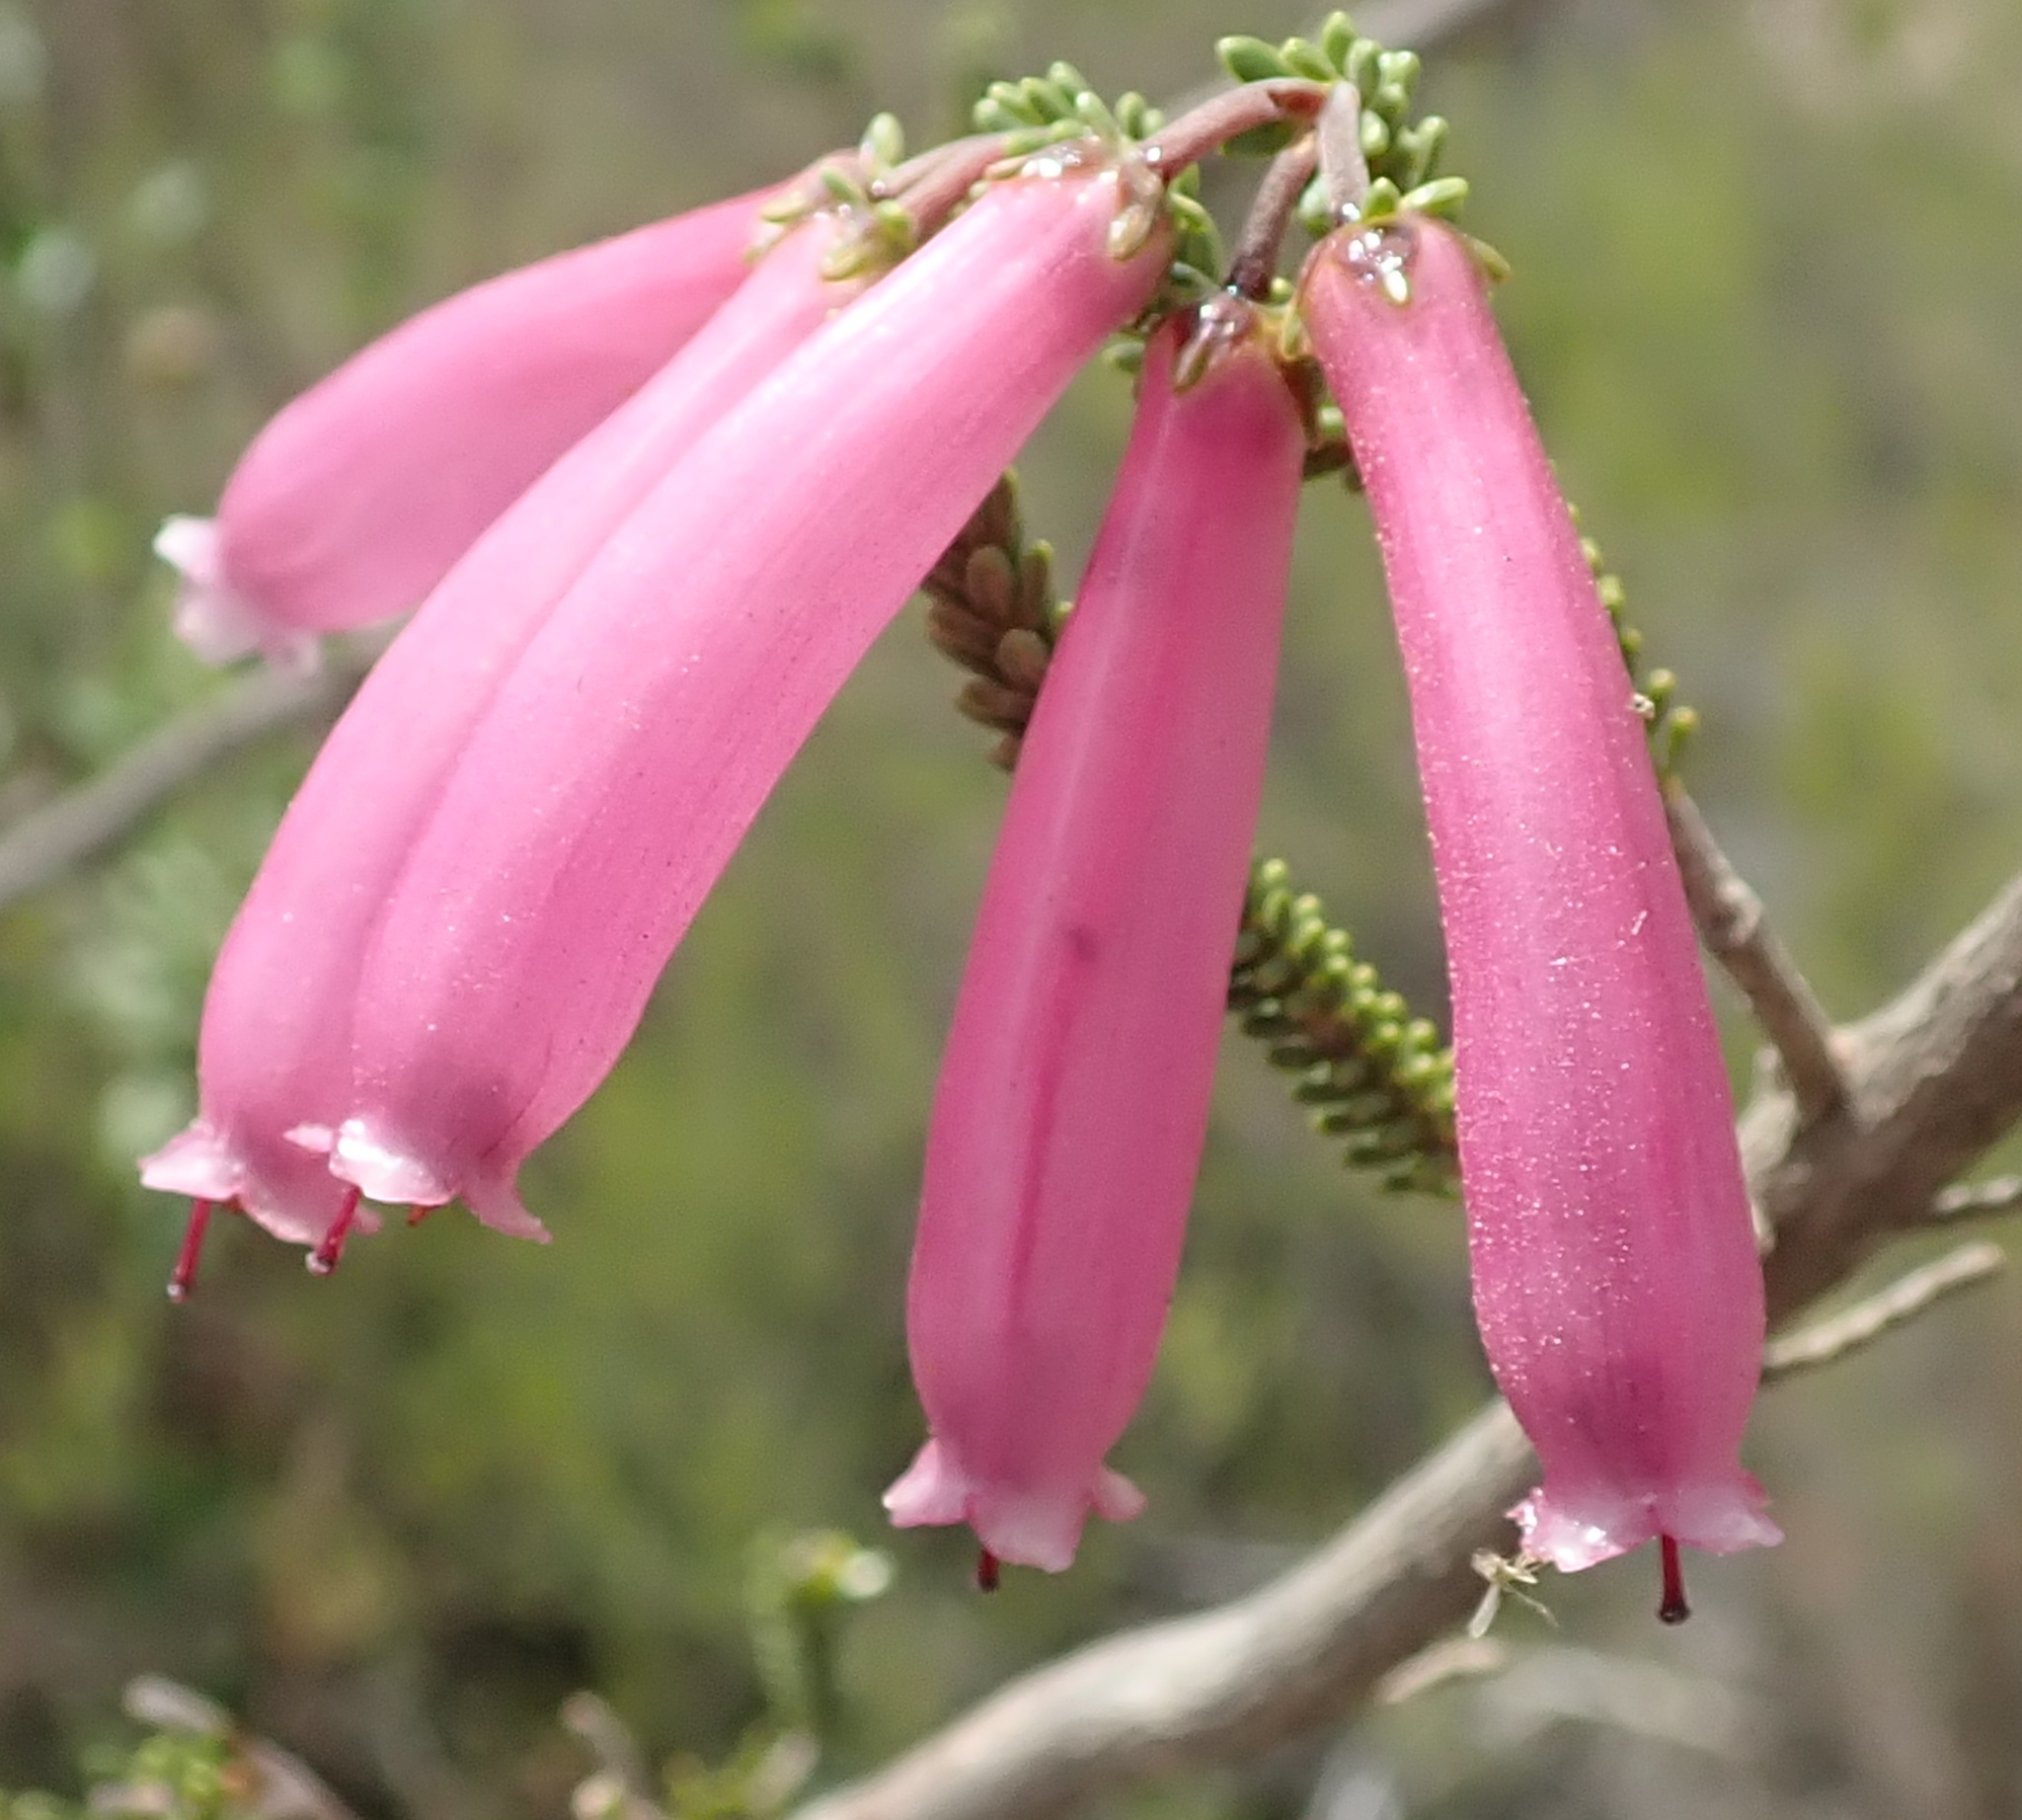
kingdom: Plantae
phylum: Tracheophyta
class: Magnoliopsida
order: Ericales
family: Ericaceae
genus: Erica
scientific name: Erica prolata
